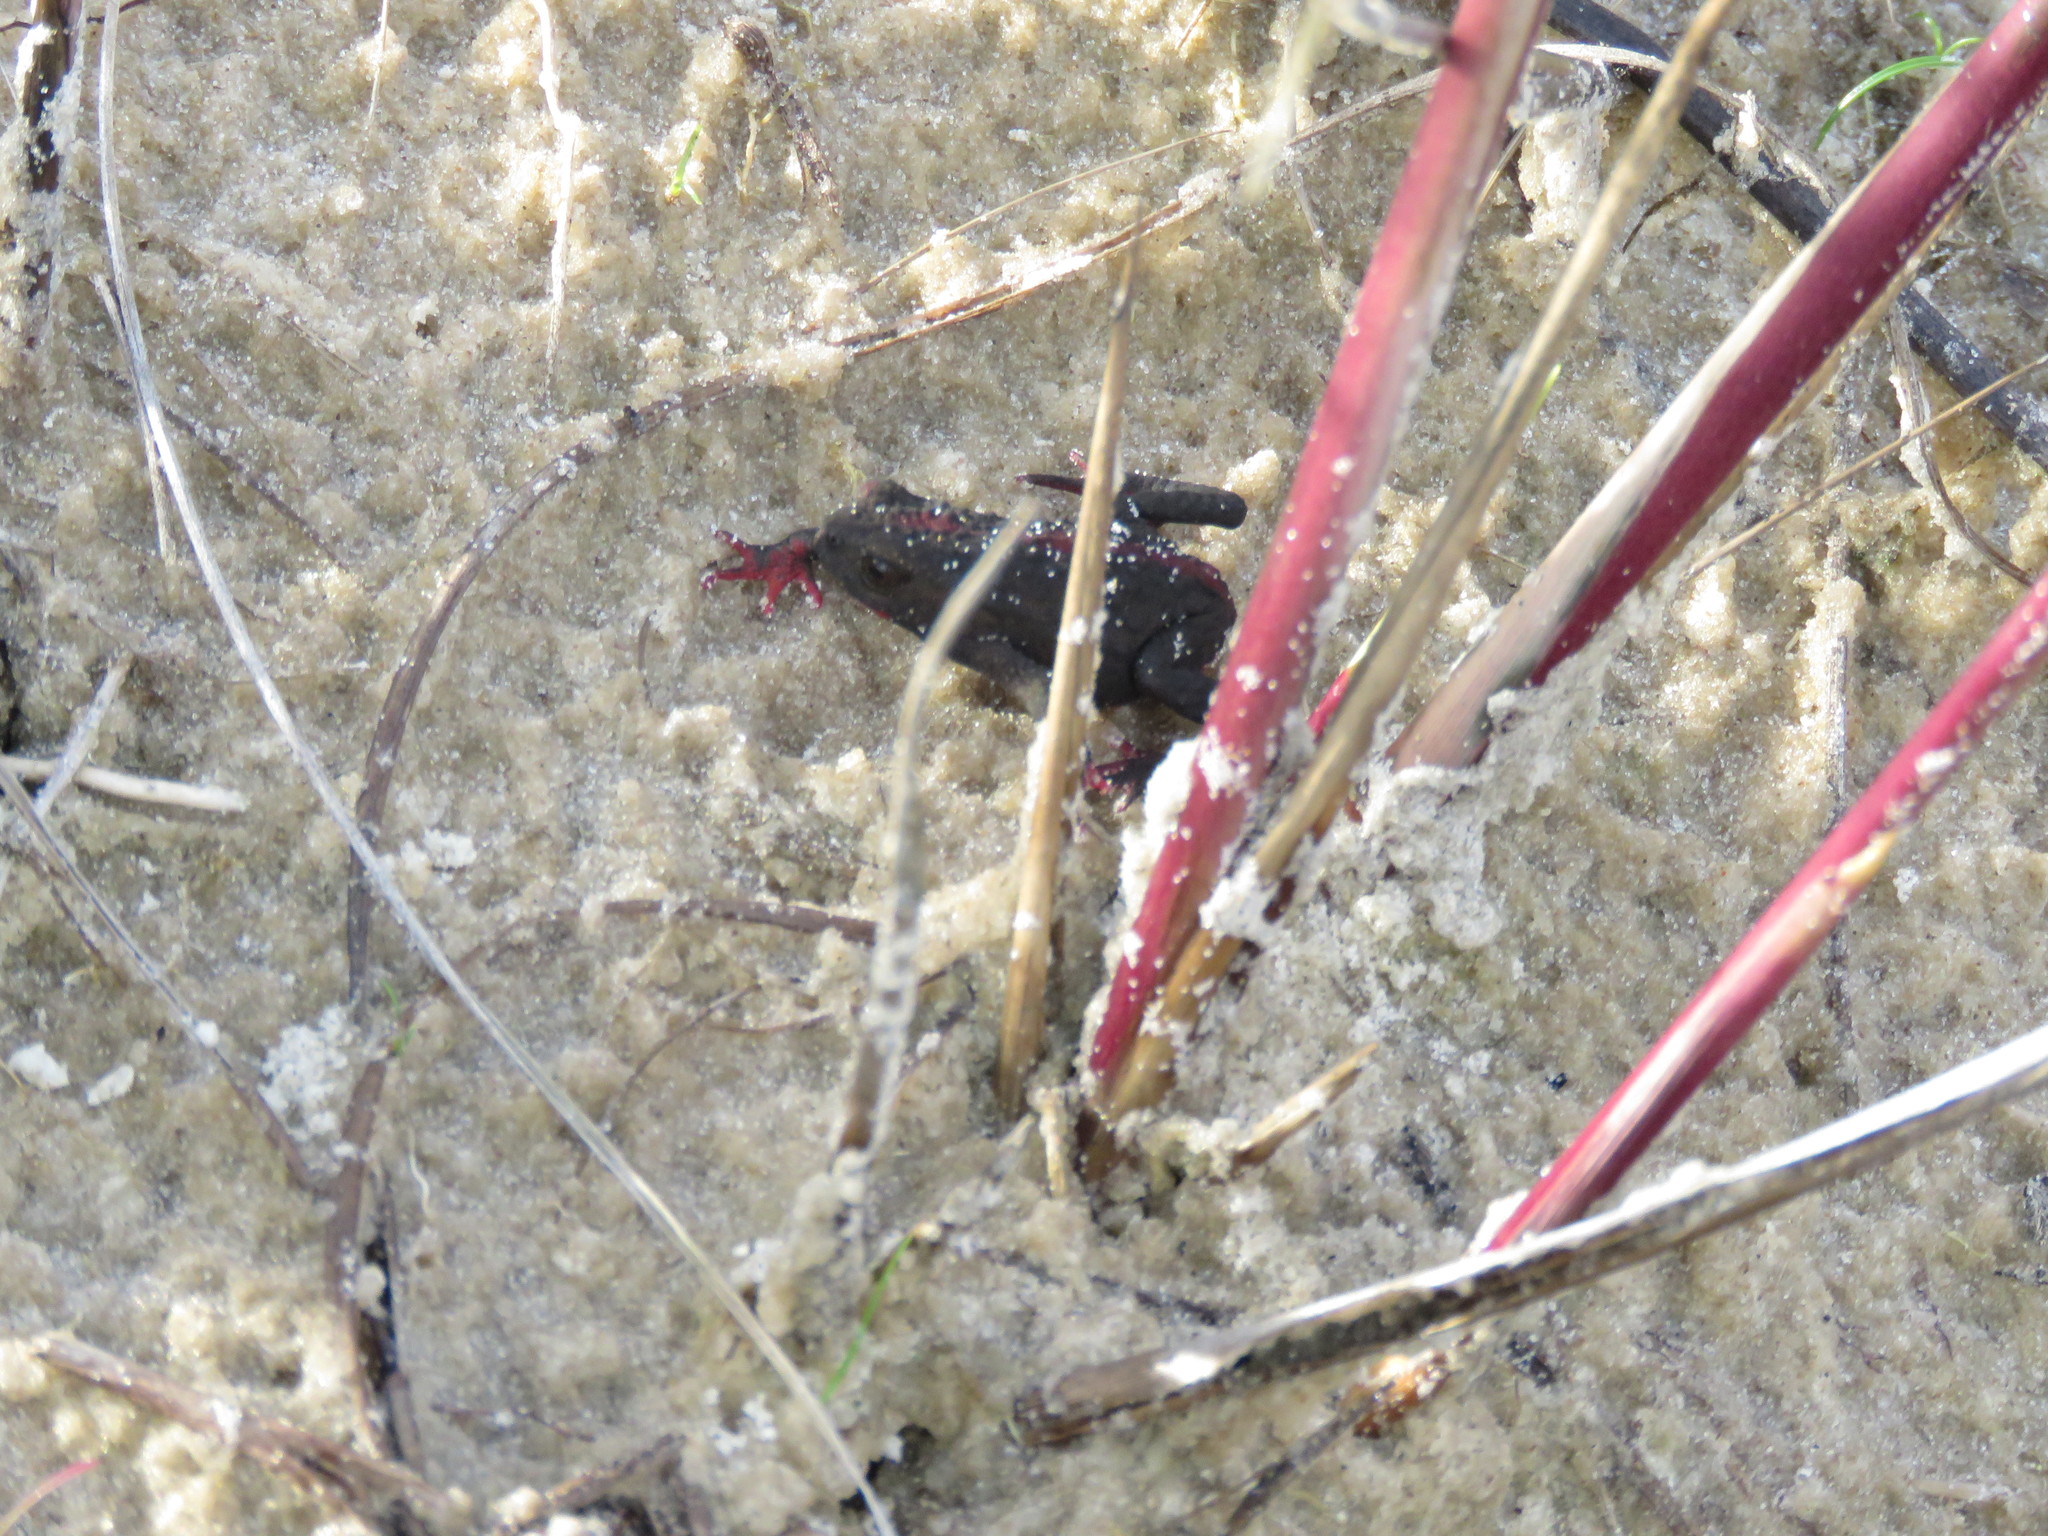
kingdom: Animalia
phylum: Chordata
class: Amphibia
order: Anura
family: Bufonidae
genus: Melanophryniscus
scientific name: Melanophryniscus dorsalis
